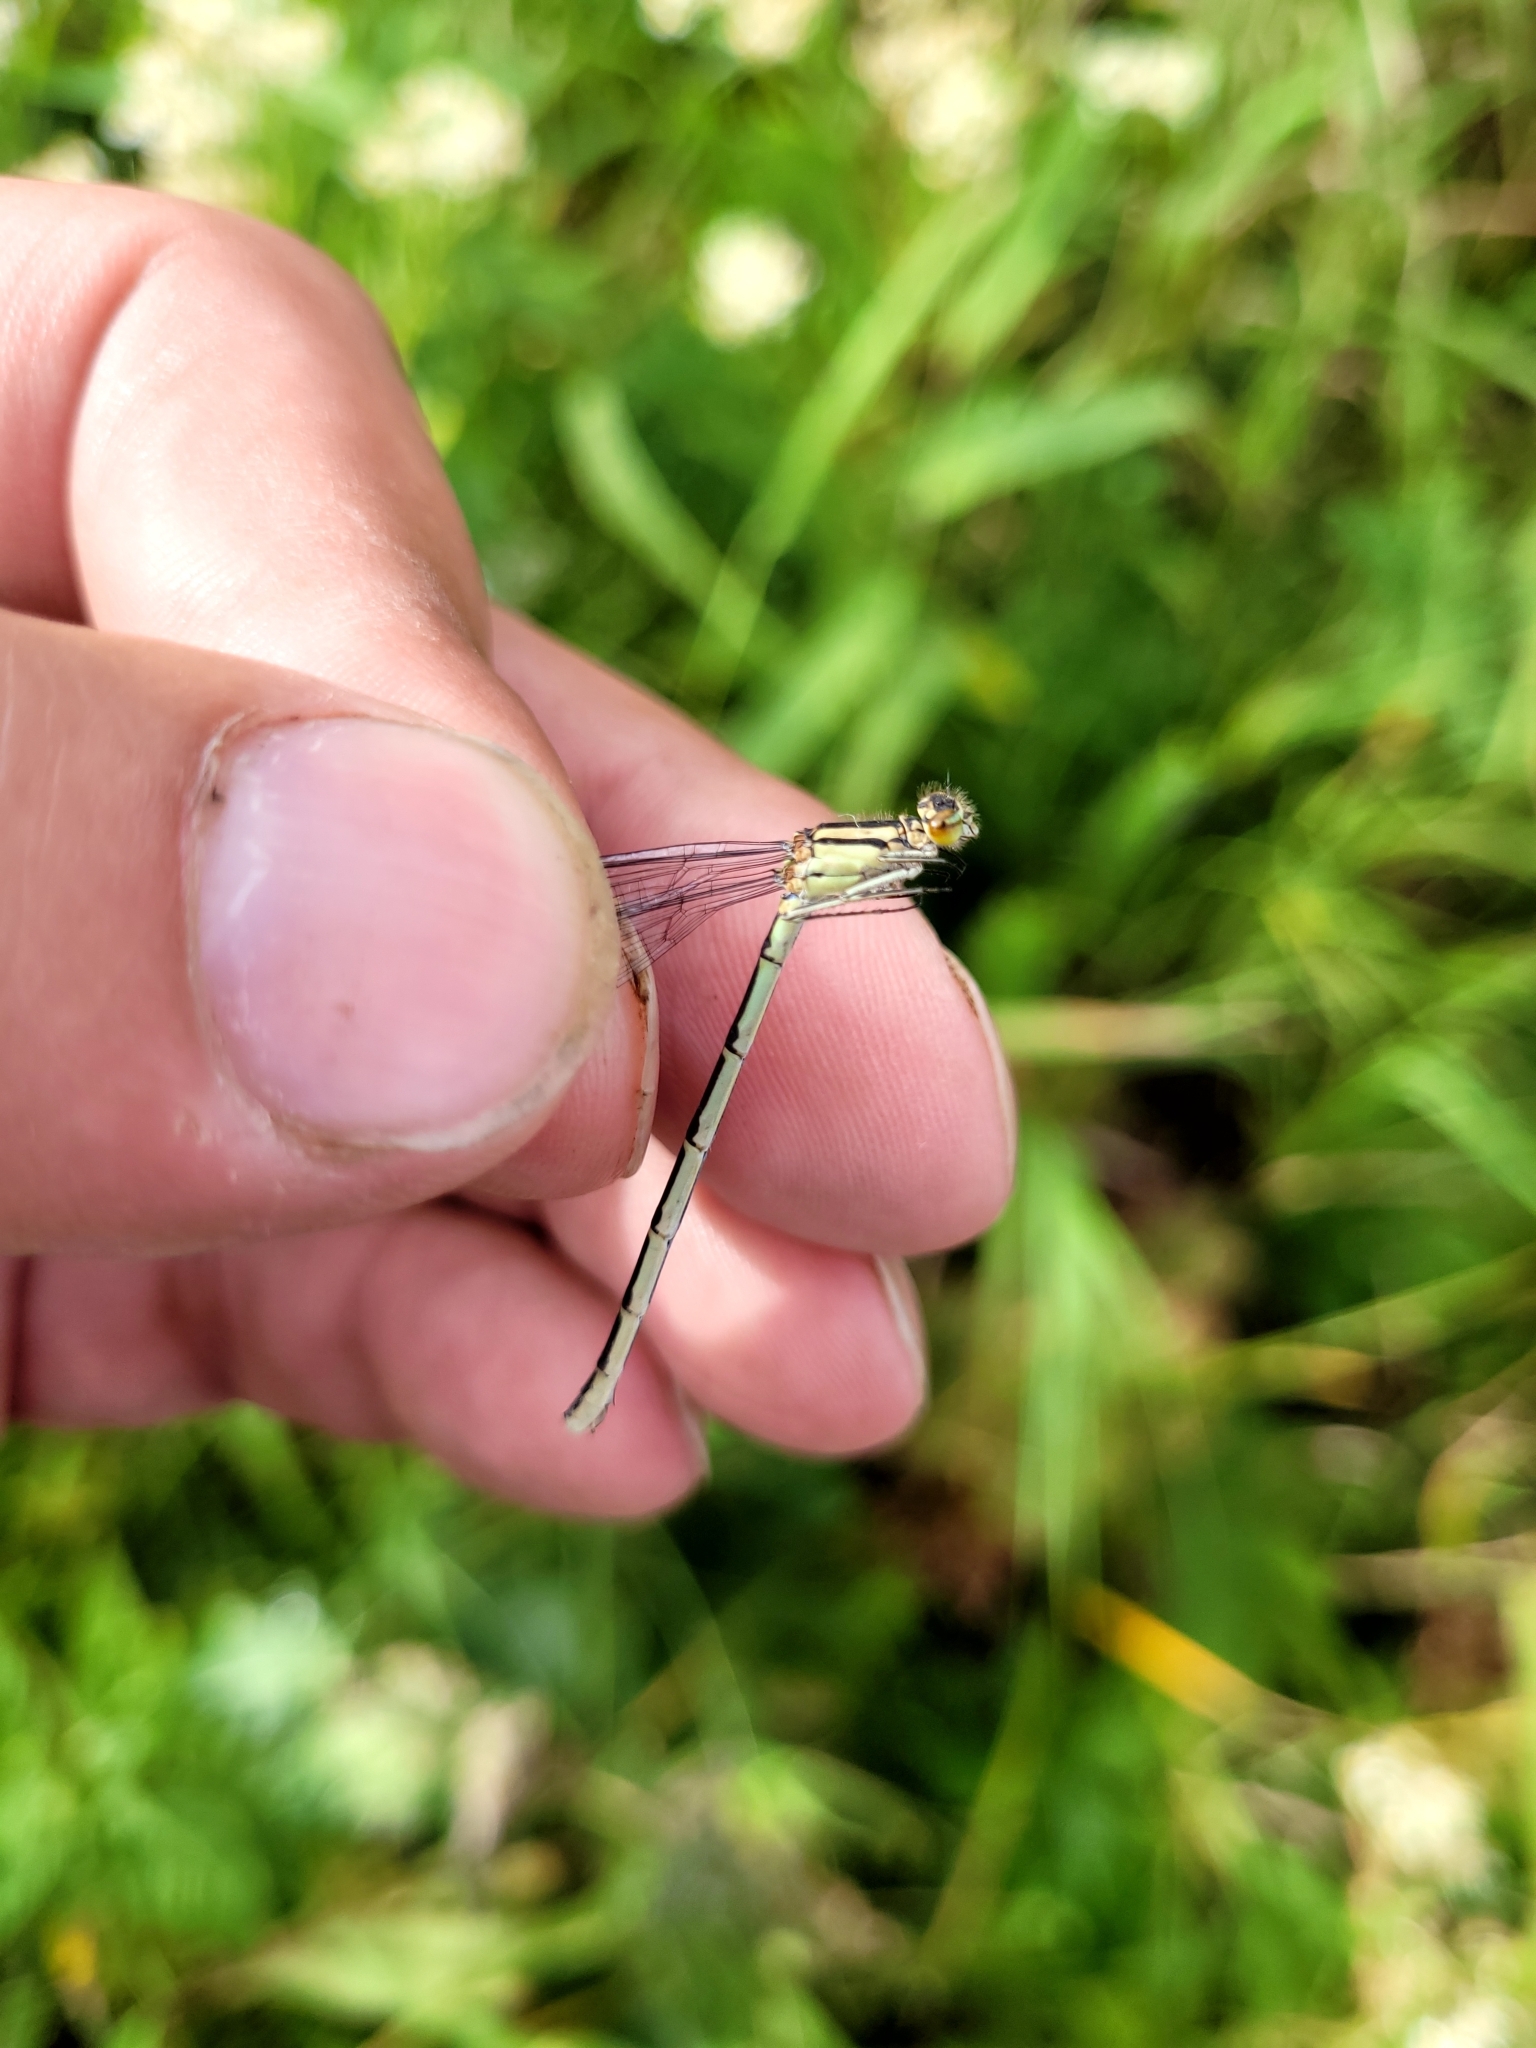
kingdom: Animalia
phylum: Arthropoda
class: Insecta
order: Odonata
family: Coenagrionidae
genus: Enallagma
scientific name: Enallagma circulatum
